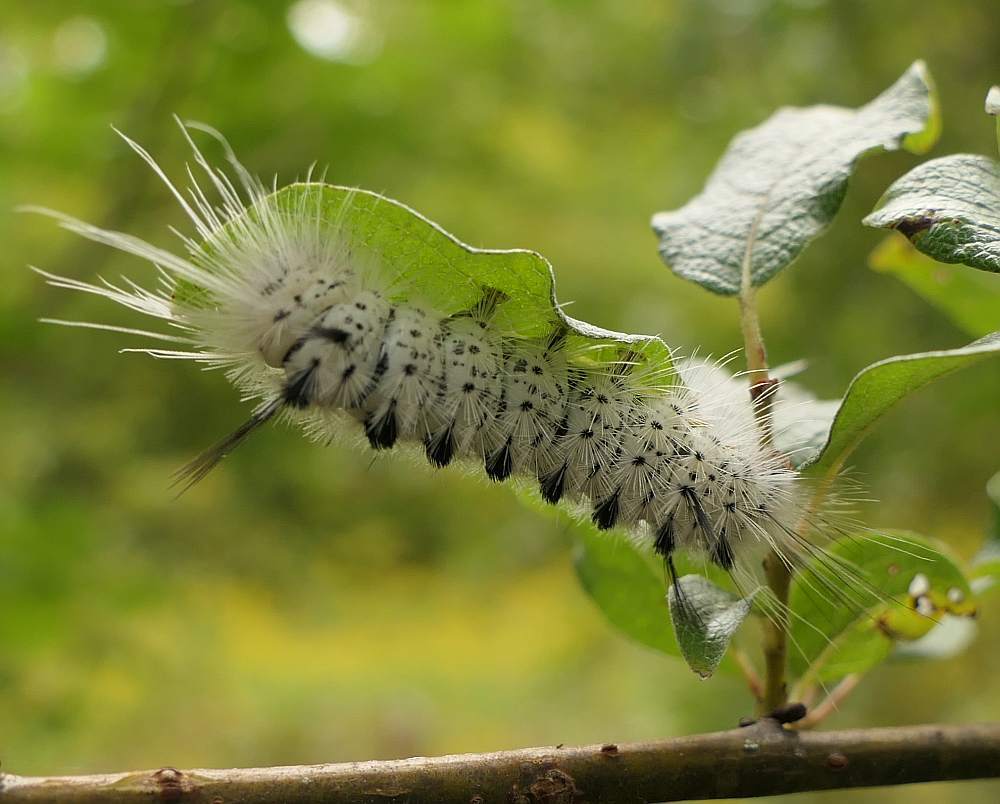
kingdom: Animalia
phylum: Arthropoda
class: Insecta
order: Lepidoptera
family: Erebidae
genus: Lophocampa
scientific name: Lophocampa caryae
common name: Hickory tussock moth
